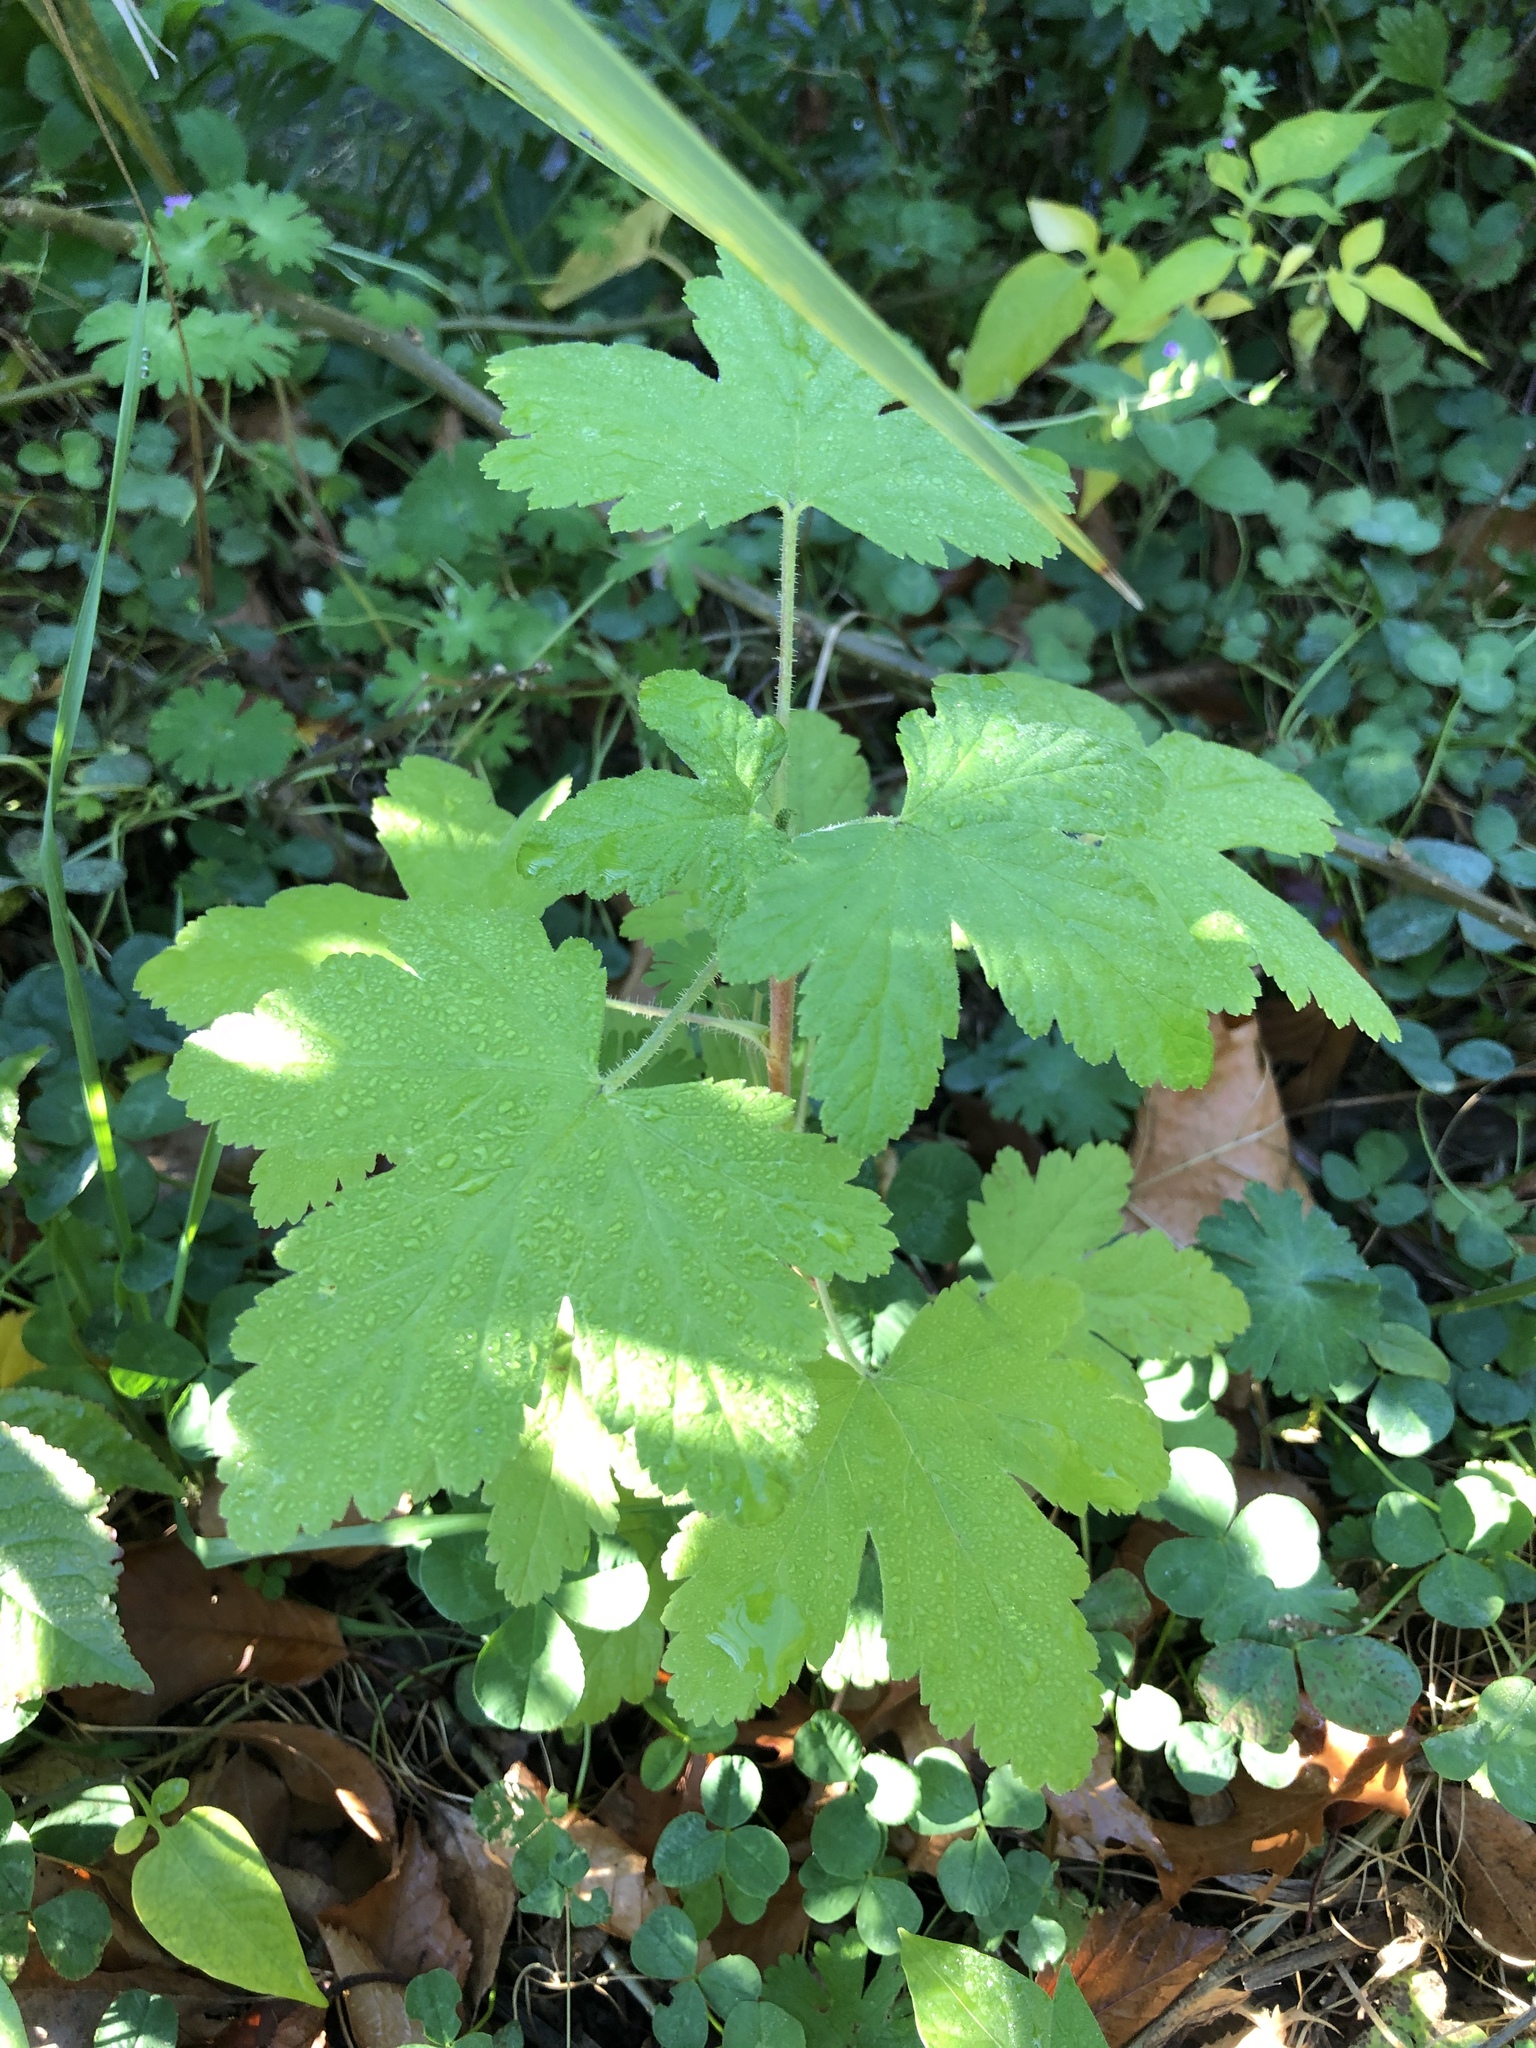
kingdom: Plantae
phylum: Tracheophyta
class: Magnoliopsida
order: Saxifragales
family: Grossulariaceae
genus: Ribes
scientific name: Ribes sanguineum
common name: Flowering currant
